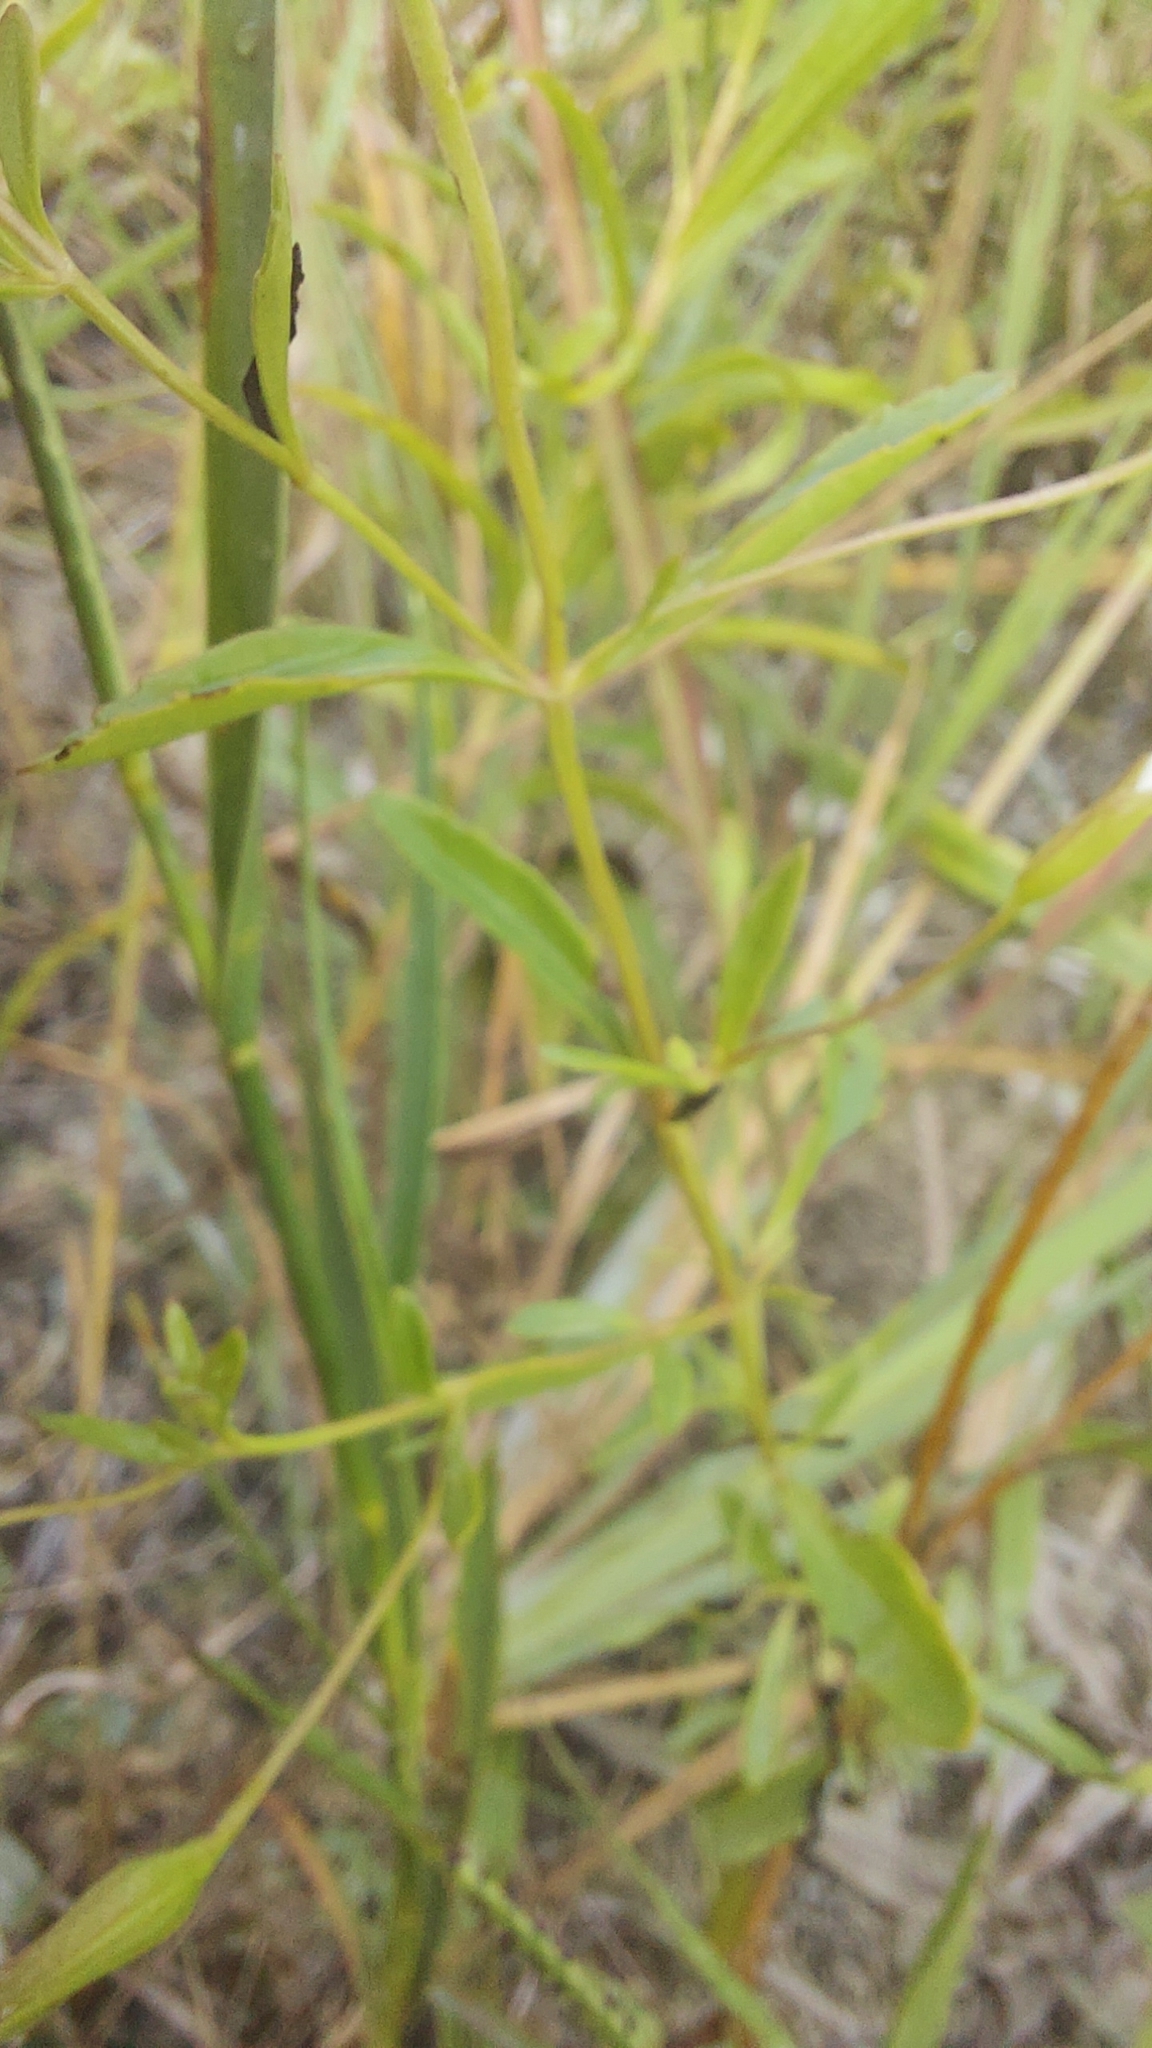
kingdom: Plantae
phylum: Tracheophyta
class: Magnoliopsida
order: Lamiales
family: Plantaginaceae
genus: Mecardonia
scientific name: Mecardonia acuminata
